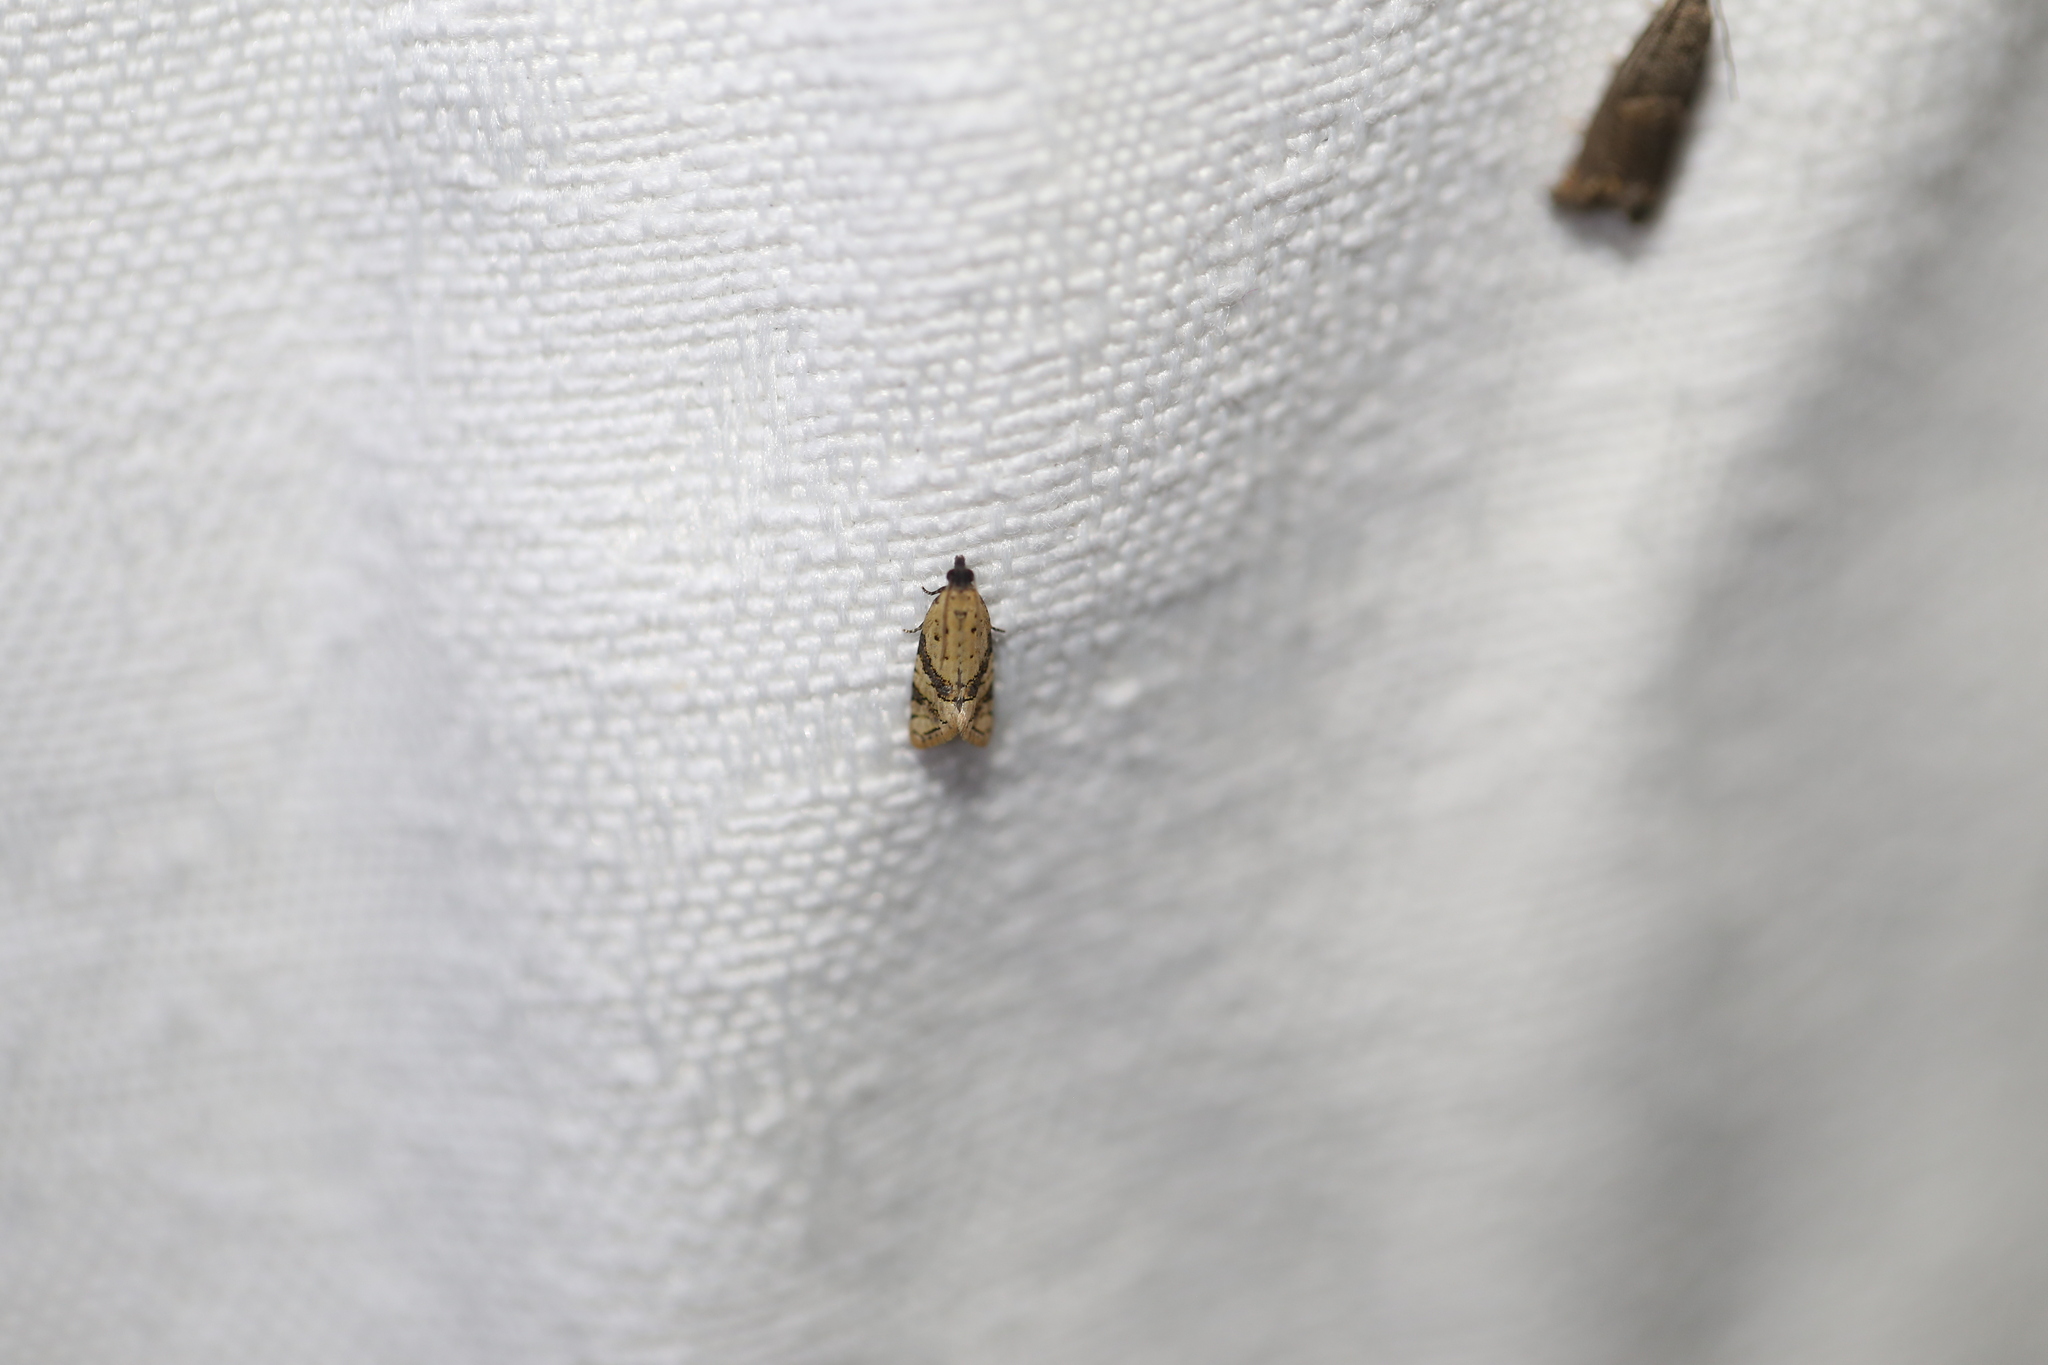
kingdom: Animalia
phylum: Arthropoda
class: Insecta
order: Lepidoptera
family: Tortricidae
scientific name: Tortricidae
